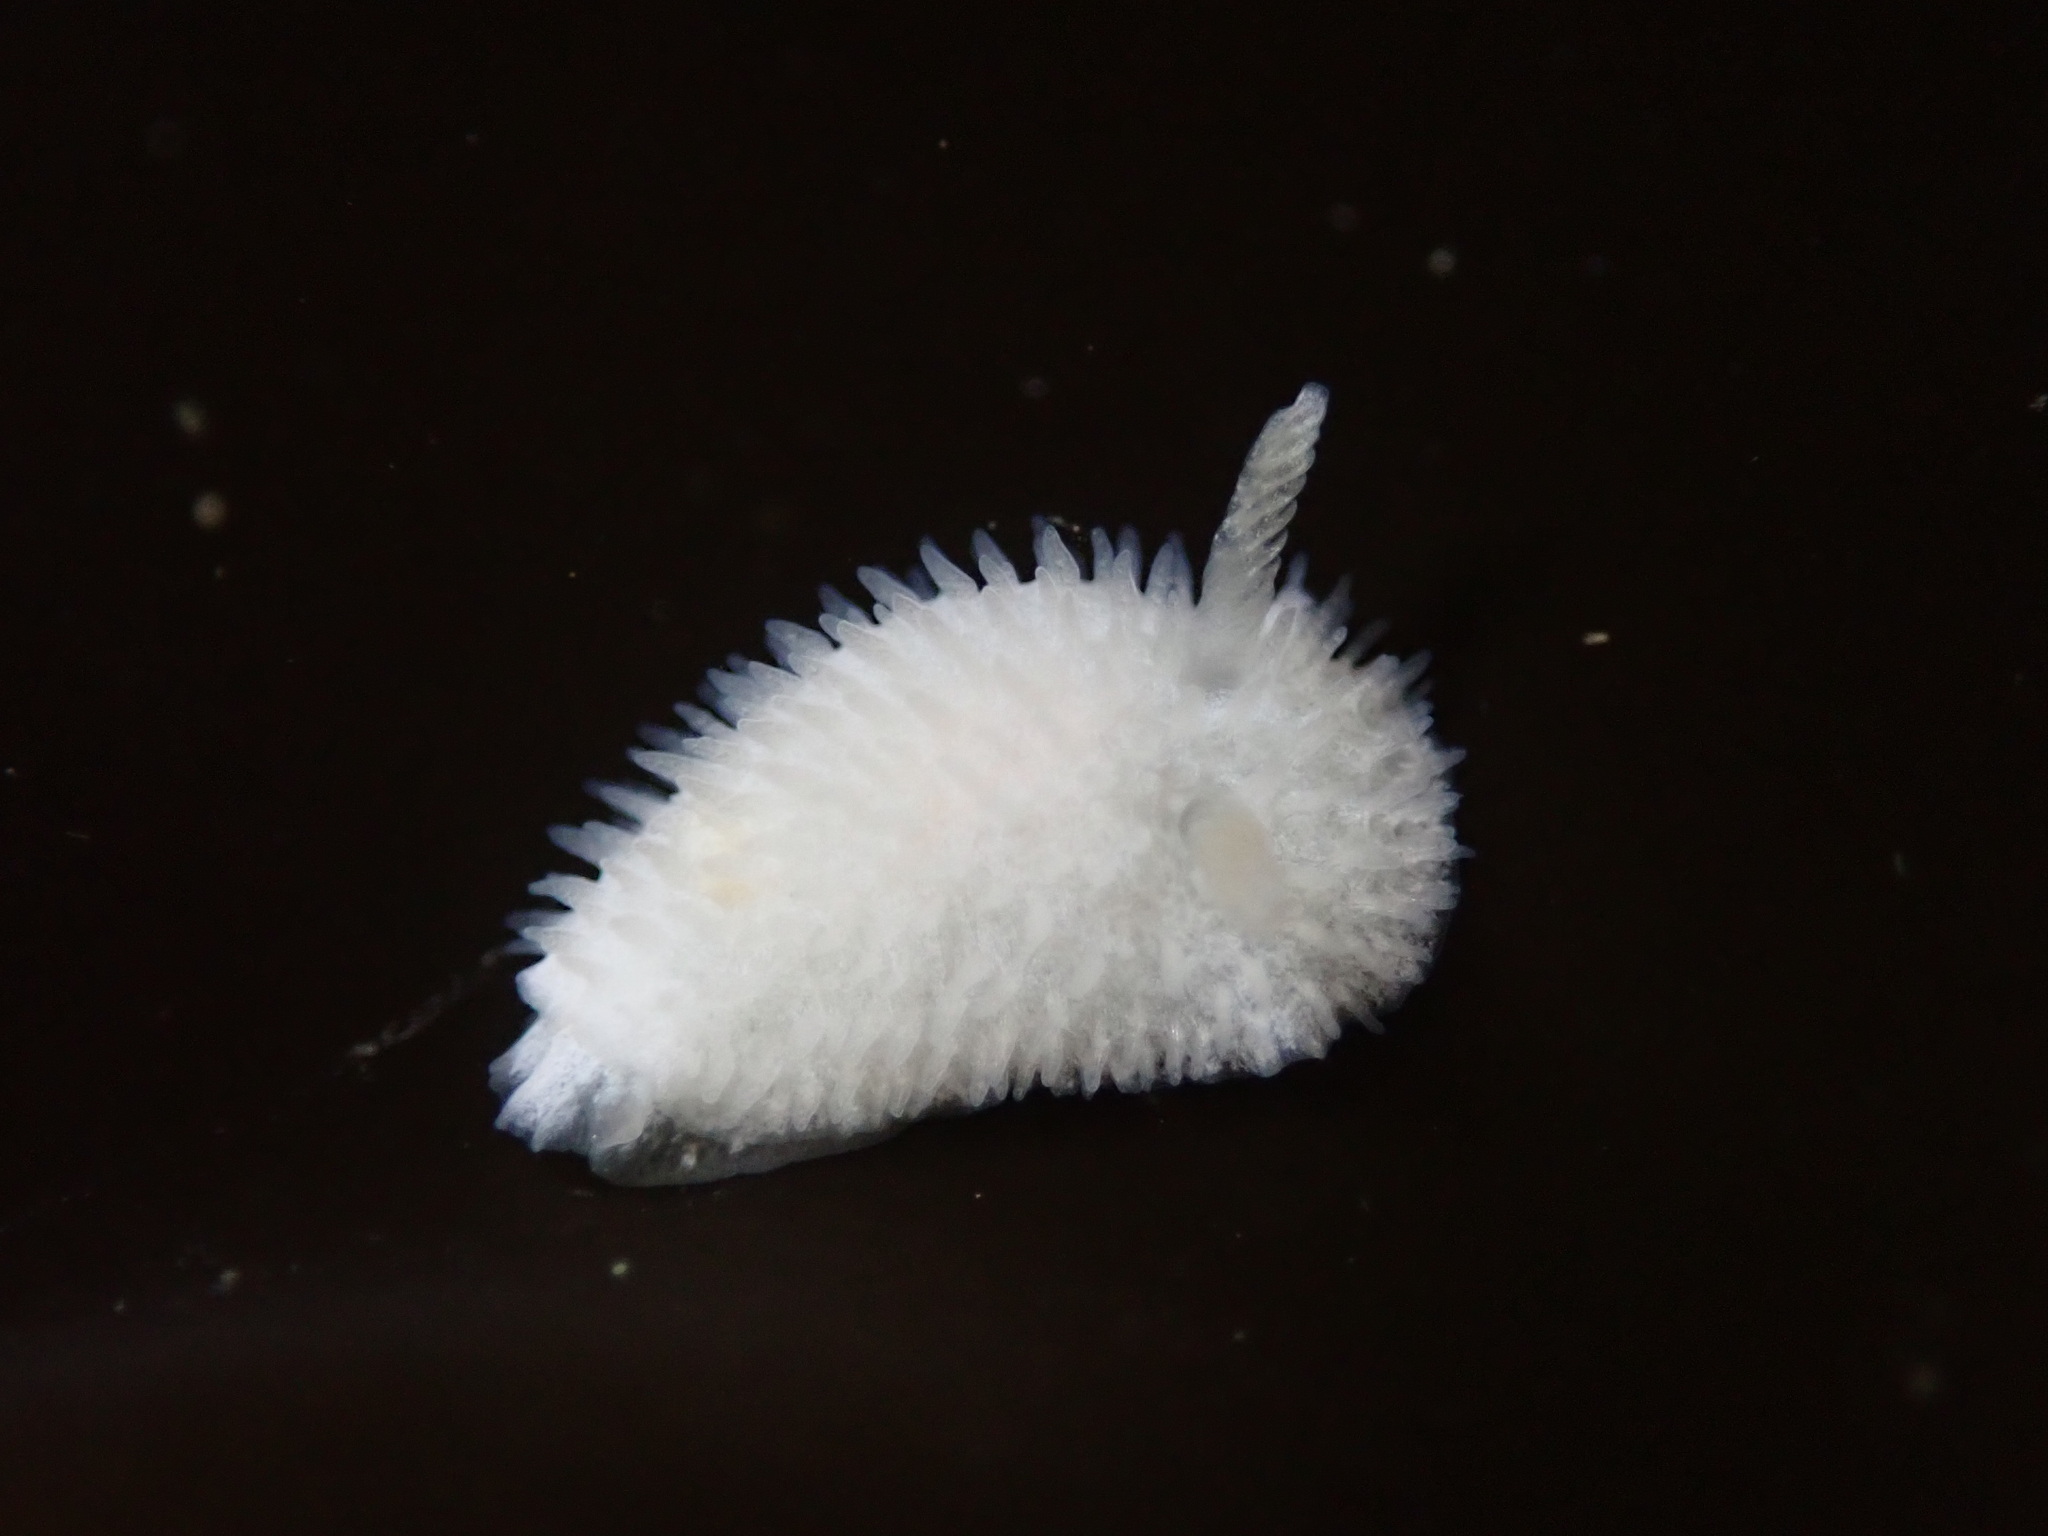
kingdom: Animalia
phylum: Mollusca
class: Gastropoda
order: Nudibranchia
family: Calycidorididae
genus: Diaphorodoris
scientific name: Diaphorodoris lirulatocauda
